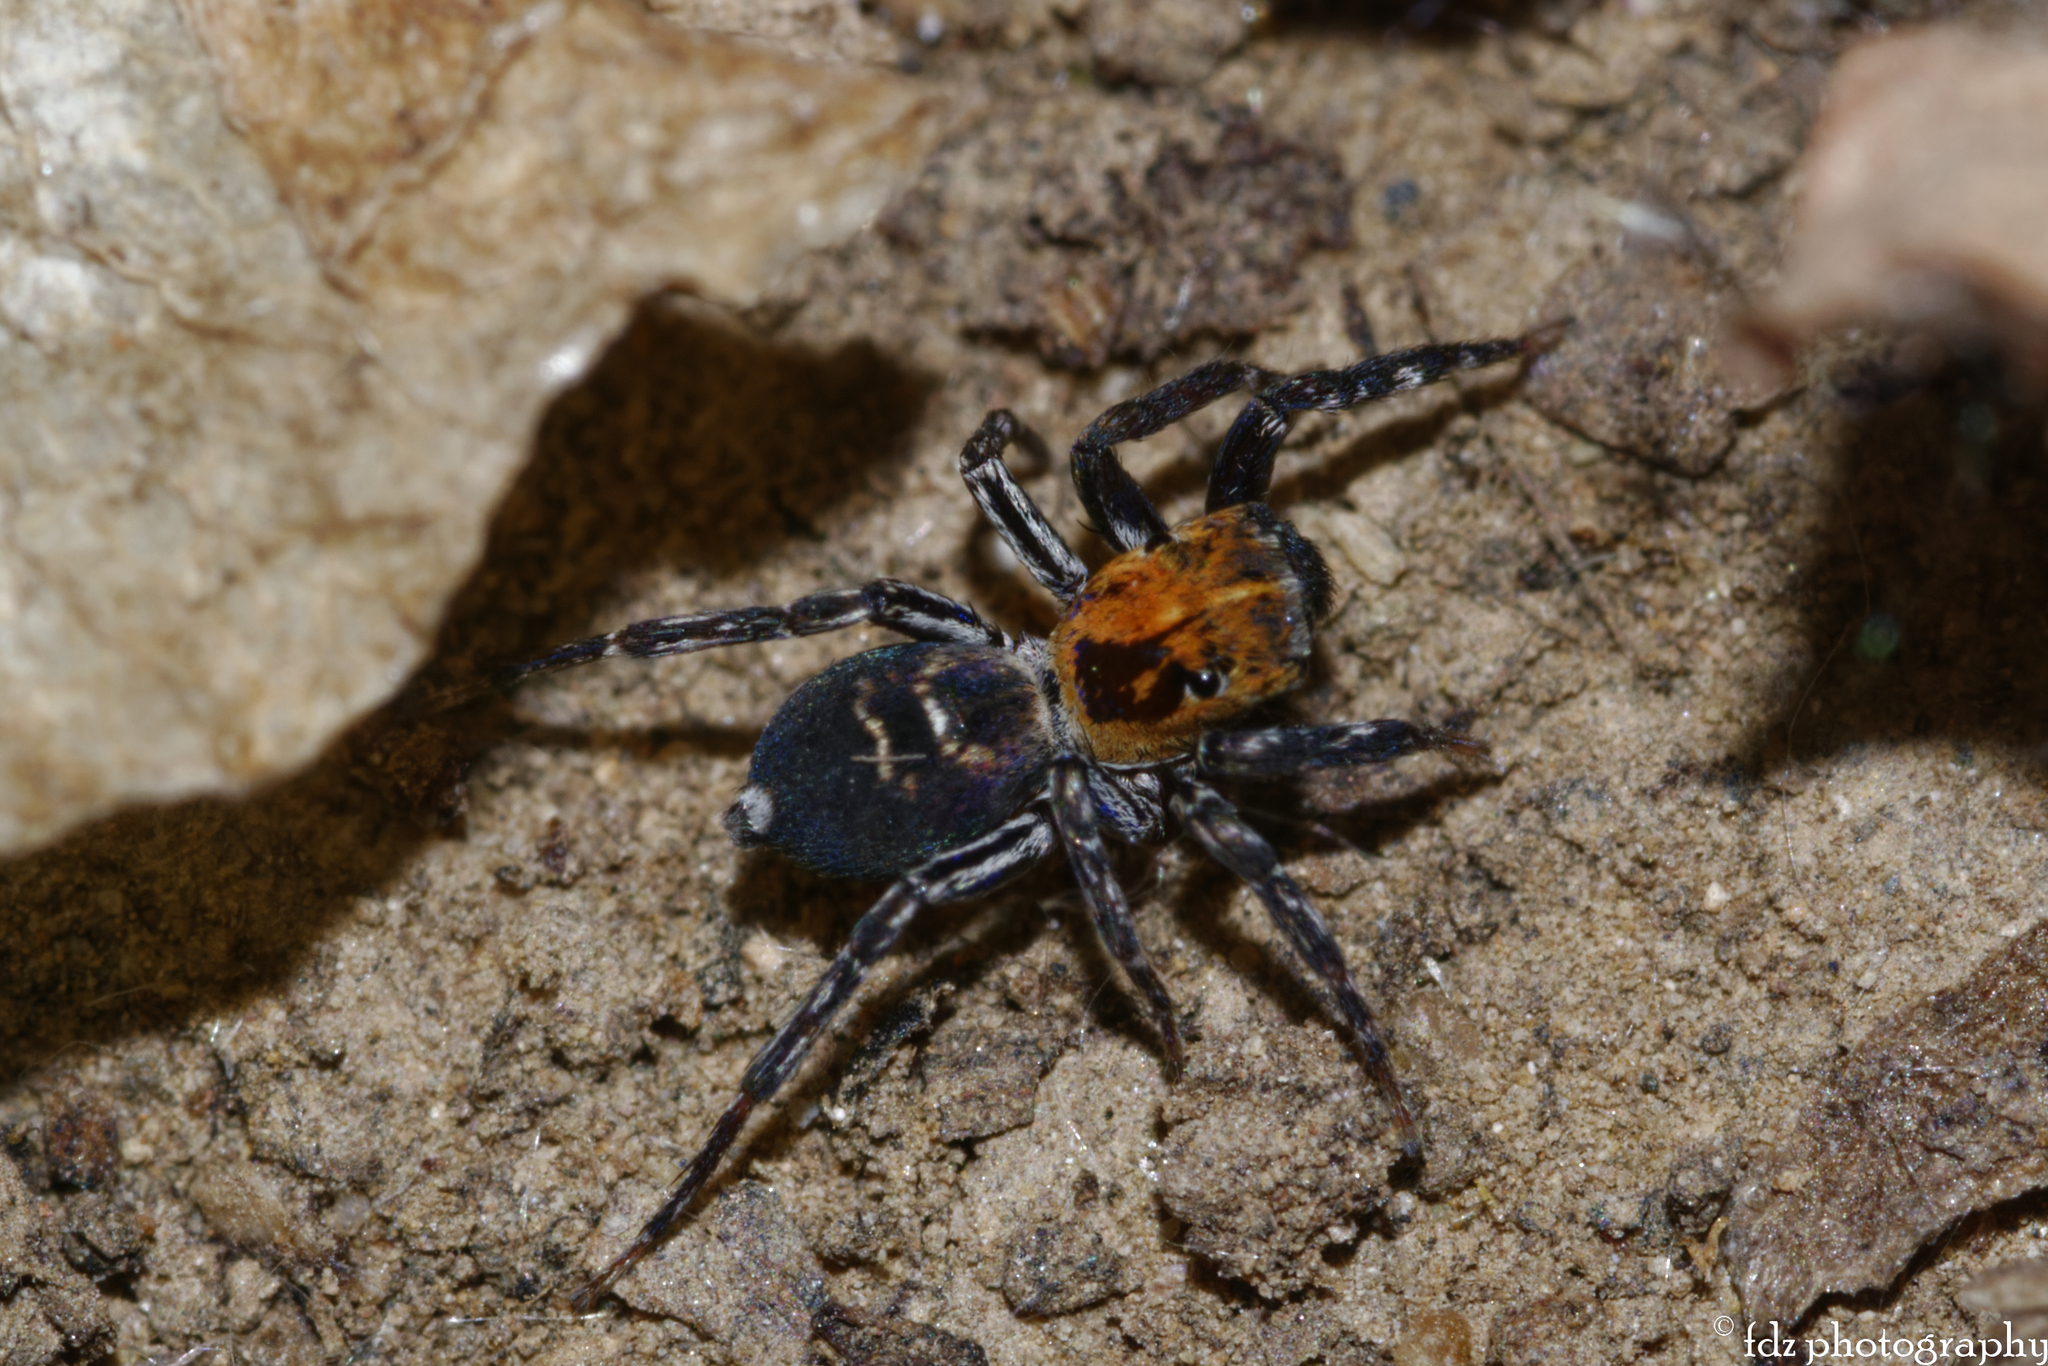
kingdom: Animalia
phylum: Arthropoda
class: Arachnida
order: Araneae
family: Salticidae
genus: Cyrba
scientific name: Cyrba algerina
